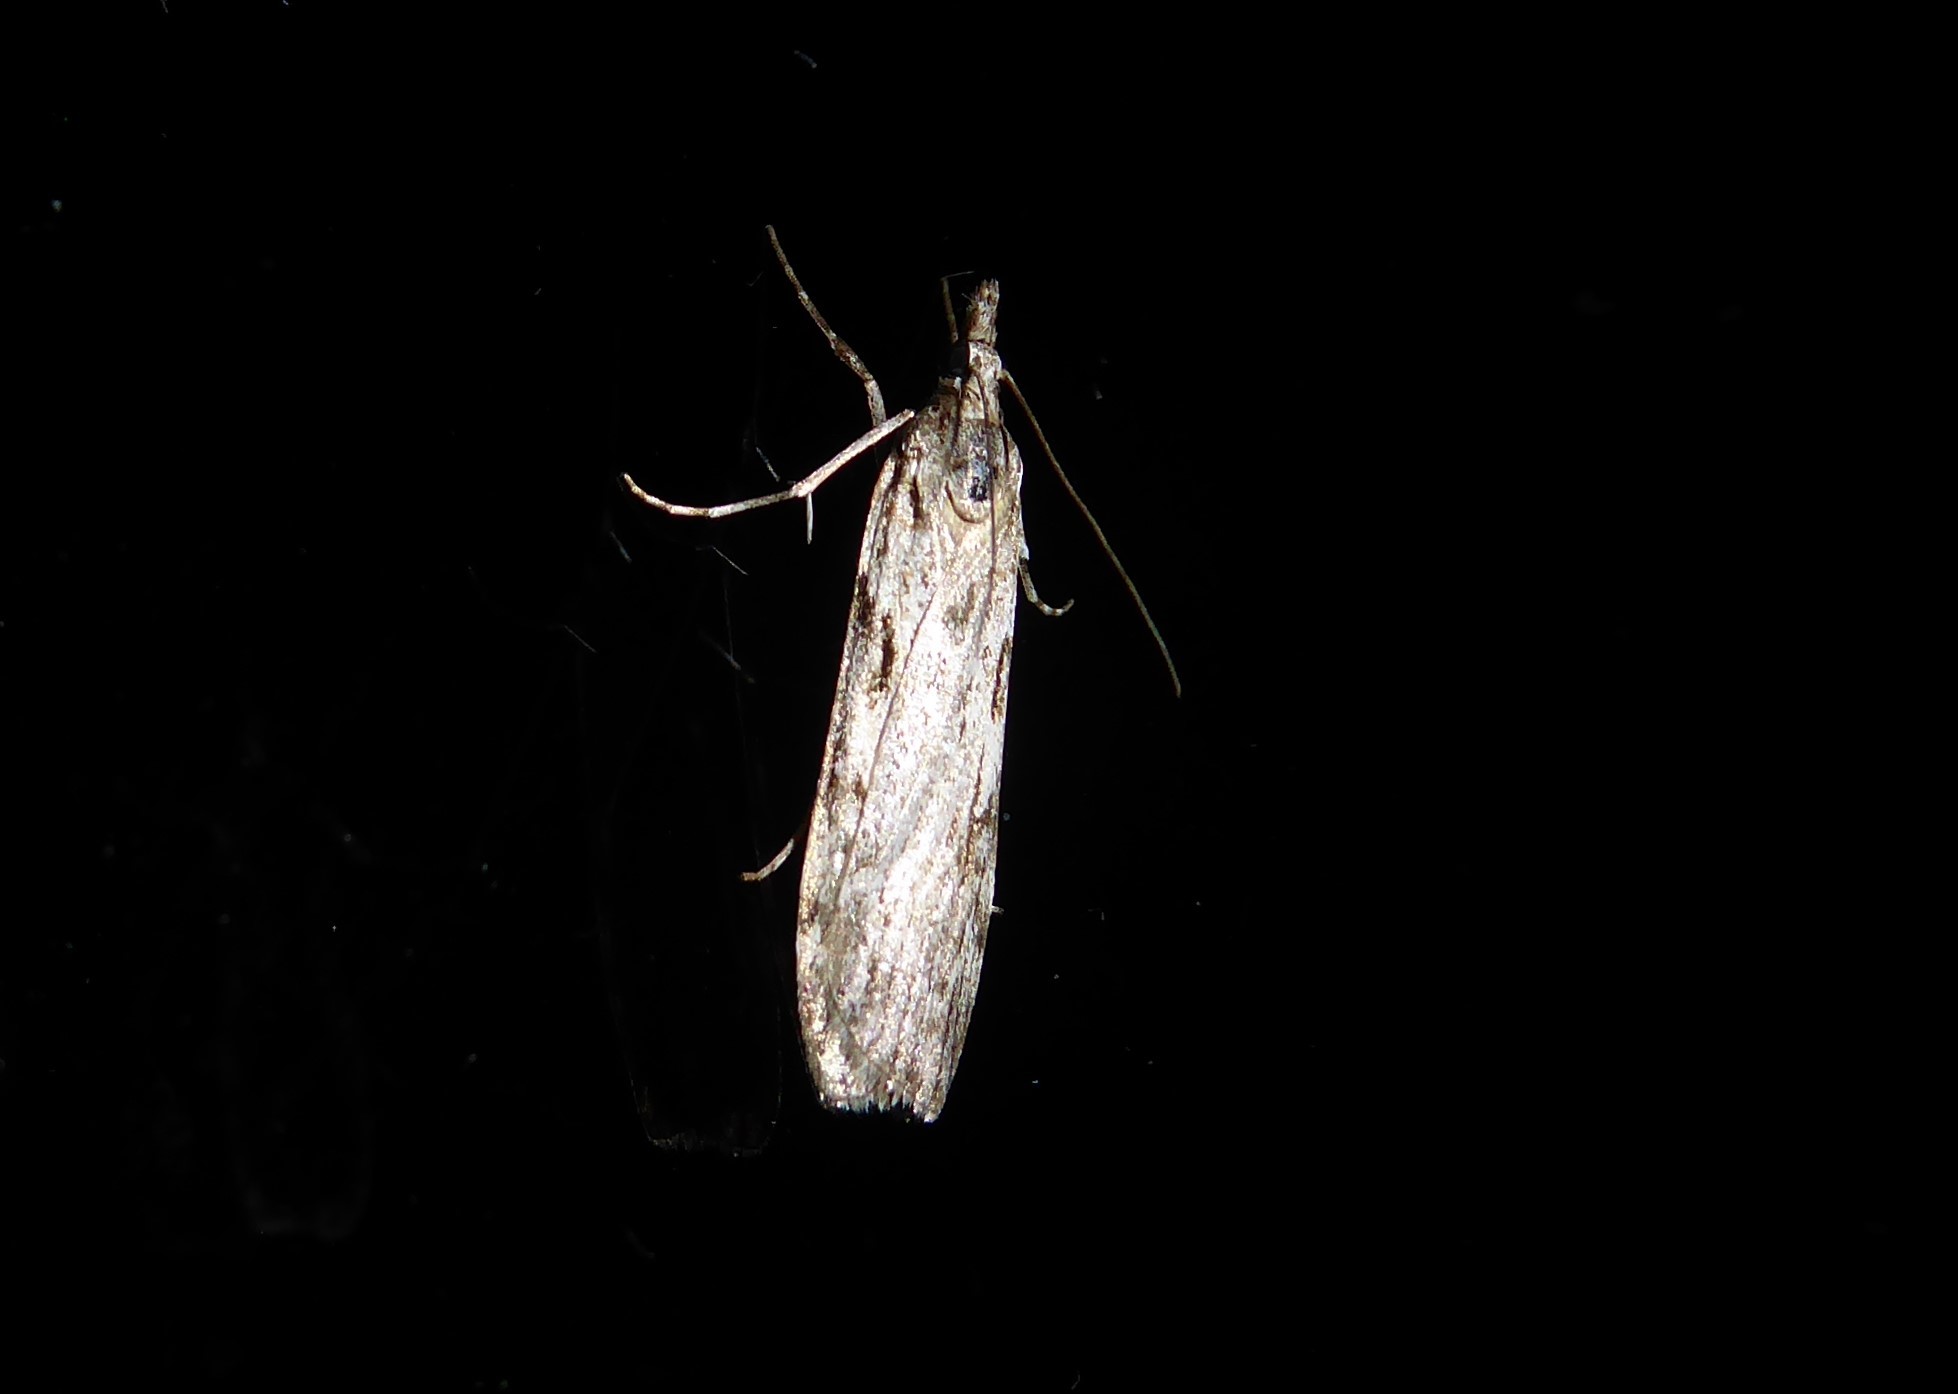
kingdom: Animalia
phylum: Arthropoda
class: Insecta
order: Lepidoptera
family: Crambidae
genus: Scoparia
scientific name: Scoparia halopis
